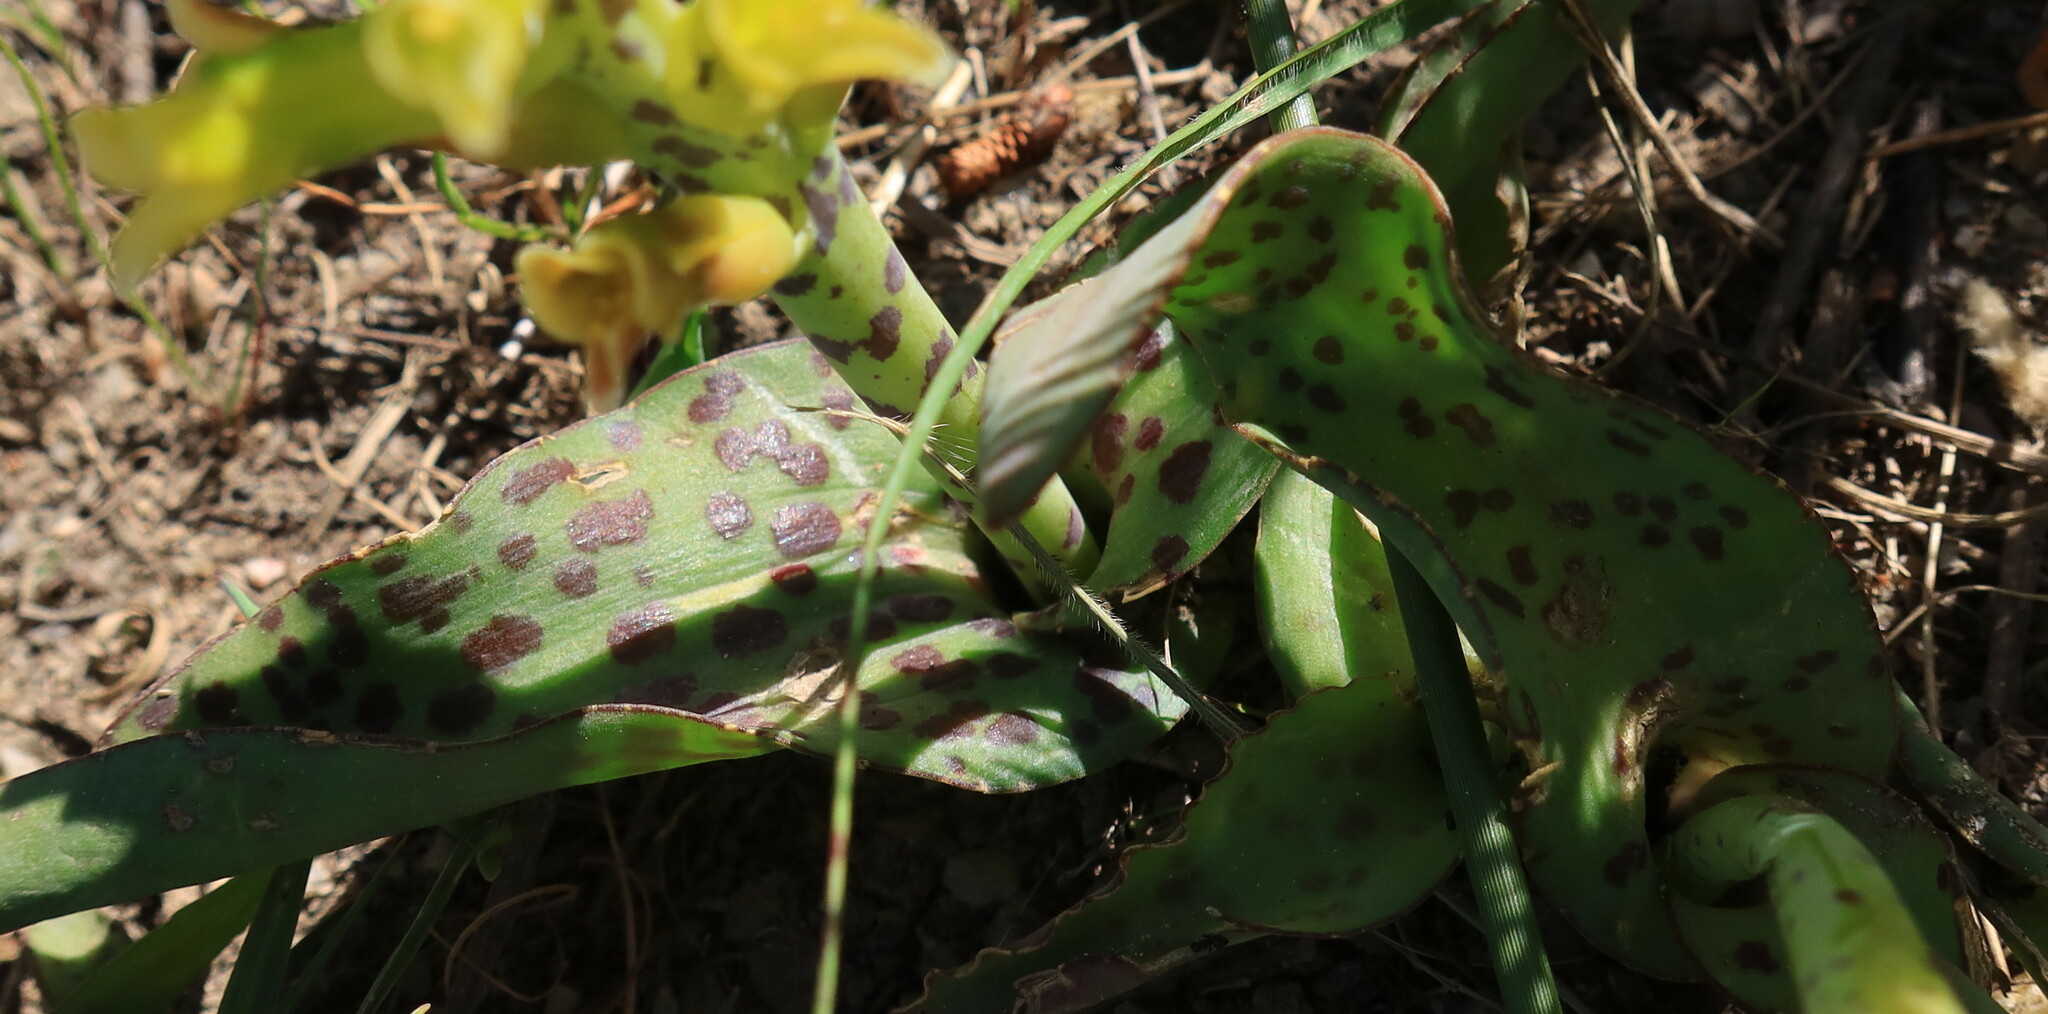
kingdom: Plantae
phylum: Tracheophyta
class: Liliopsida
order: Asparagales
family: Asparagaceae
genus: Lachenalia
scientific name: Lachenalia orchioides
